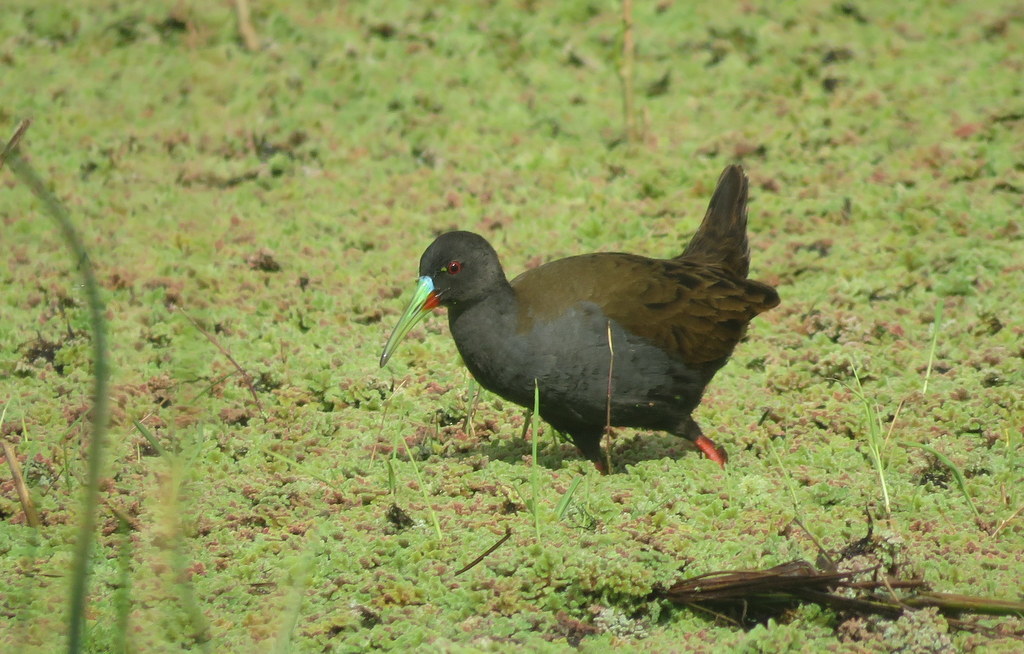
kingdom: Animalia
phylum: Chordata
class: Aves
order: Gruiformes
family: Rallidae
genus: Pardirallus
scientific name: Pardirallus sanguinolentus
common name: Plumbeous rail
